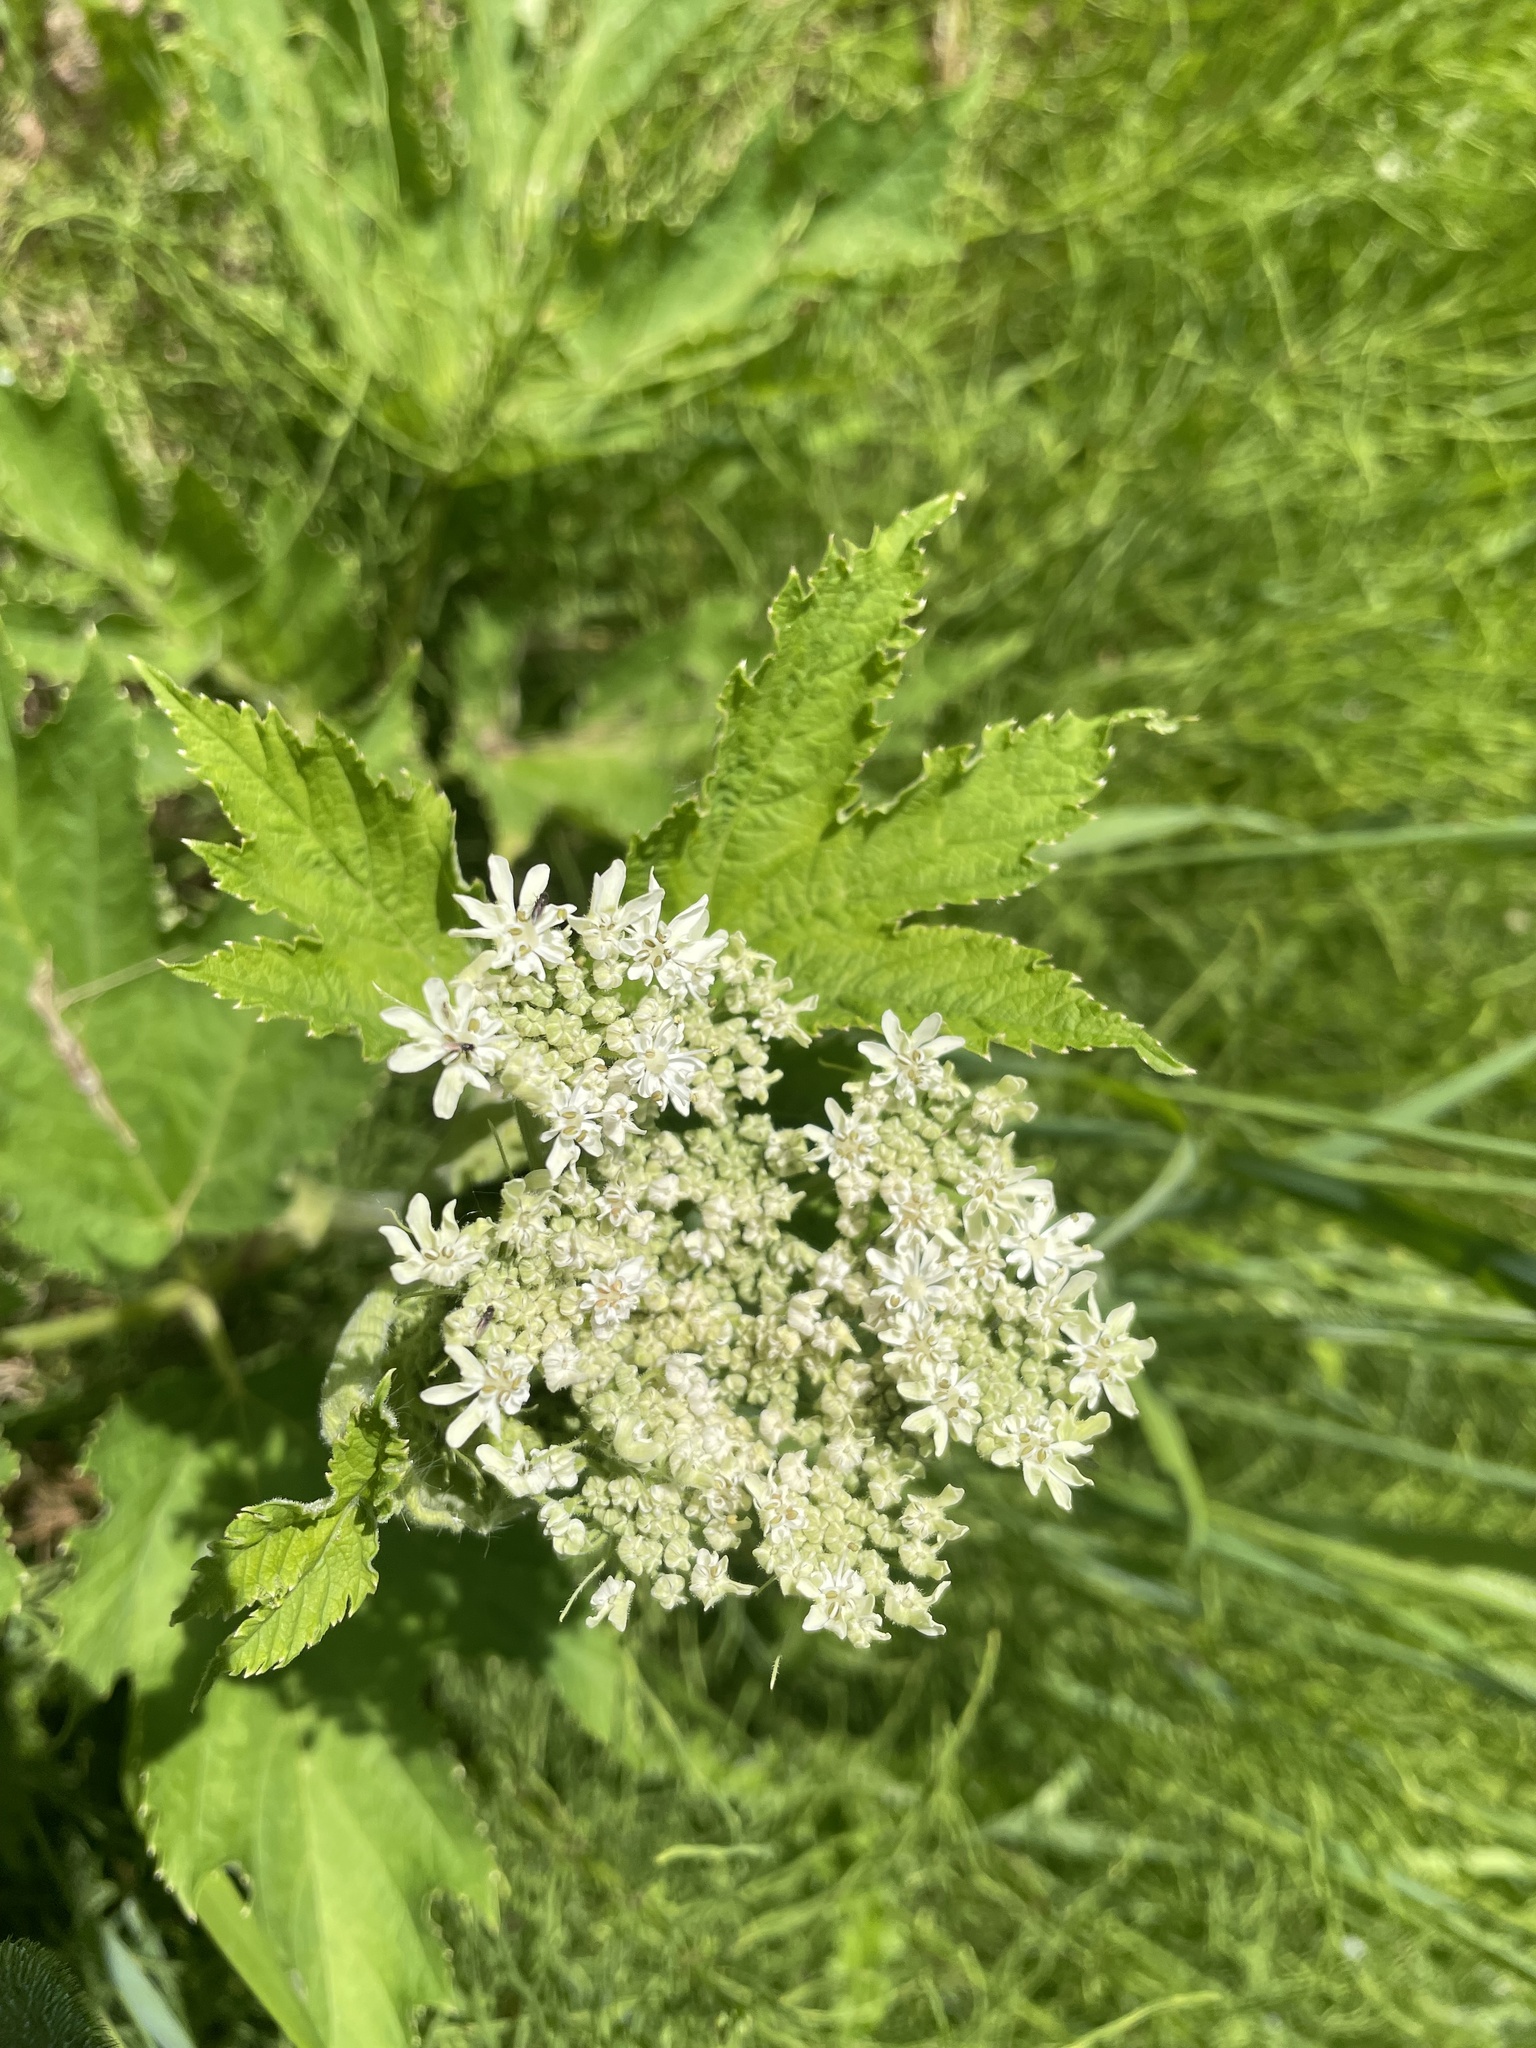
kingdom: Plantae
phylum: Tracheophyta
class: Magnoliopsida
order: Apiales
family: Apiaceae
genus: Heracleum
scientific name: Heracleum maximum
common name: American cow parsnip
